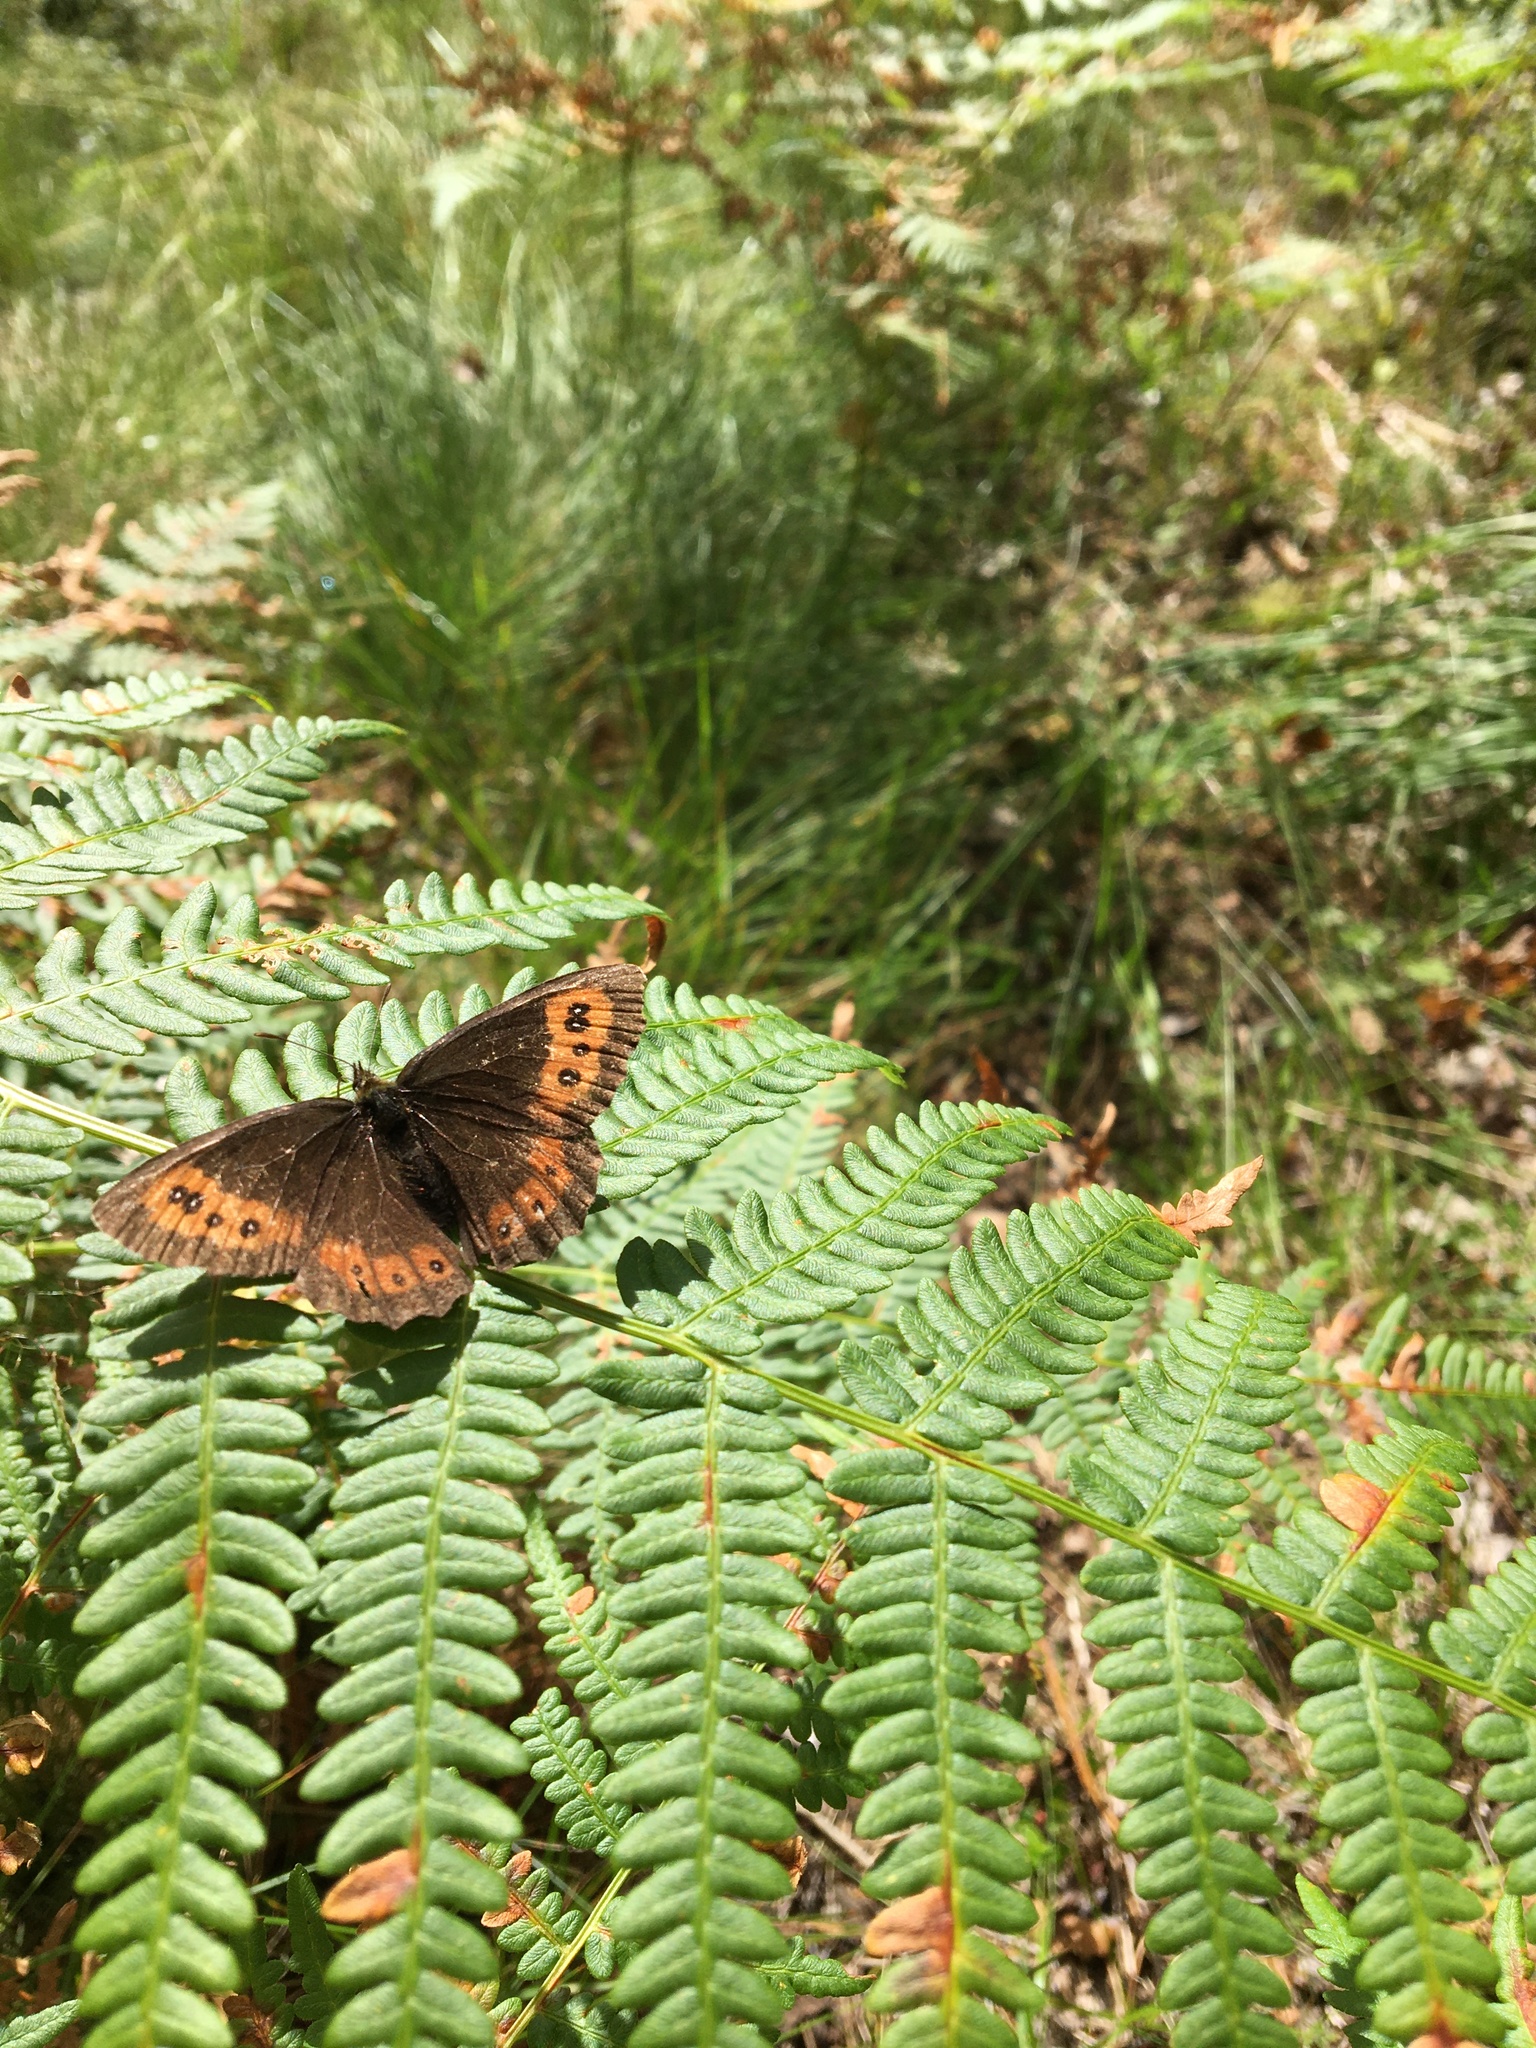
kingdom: Animalia
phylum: Arthropoda
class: Insecta
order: Lepidoptera
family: Nymphalidae
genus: Erebia
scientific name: Erebia ligea
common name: Arran brown
